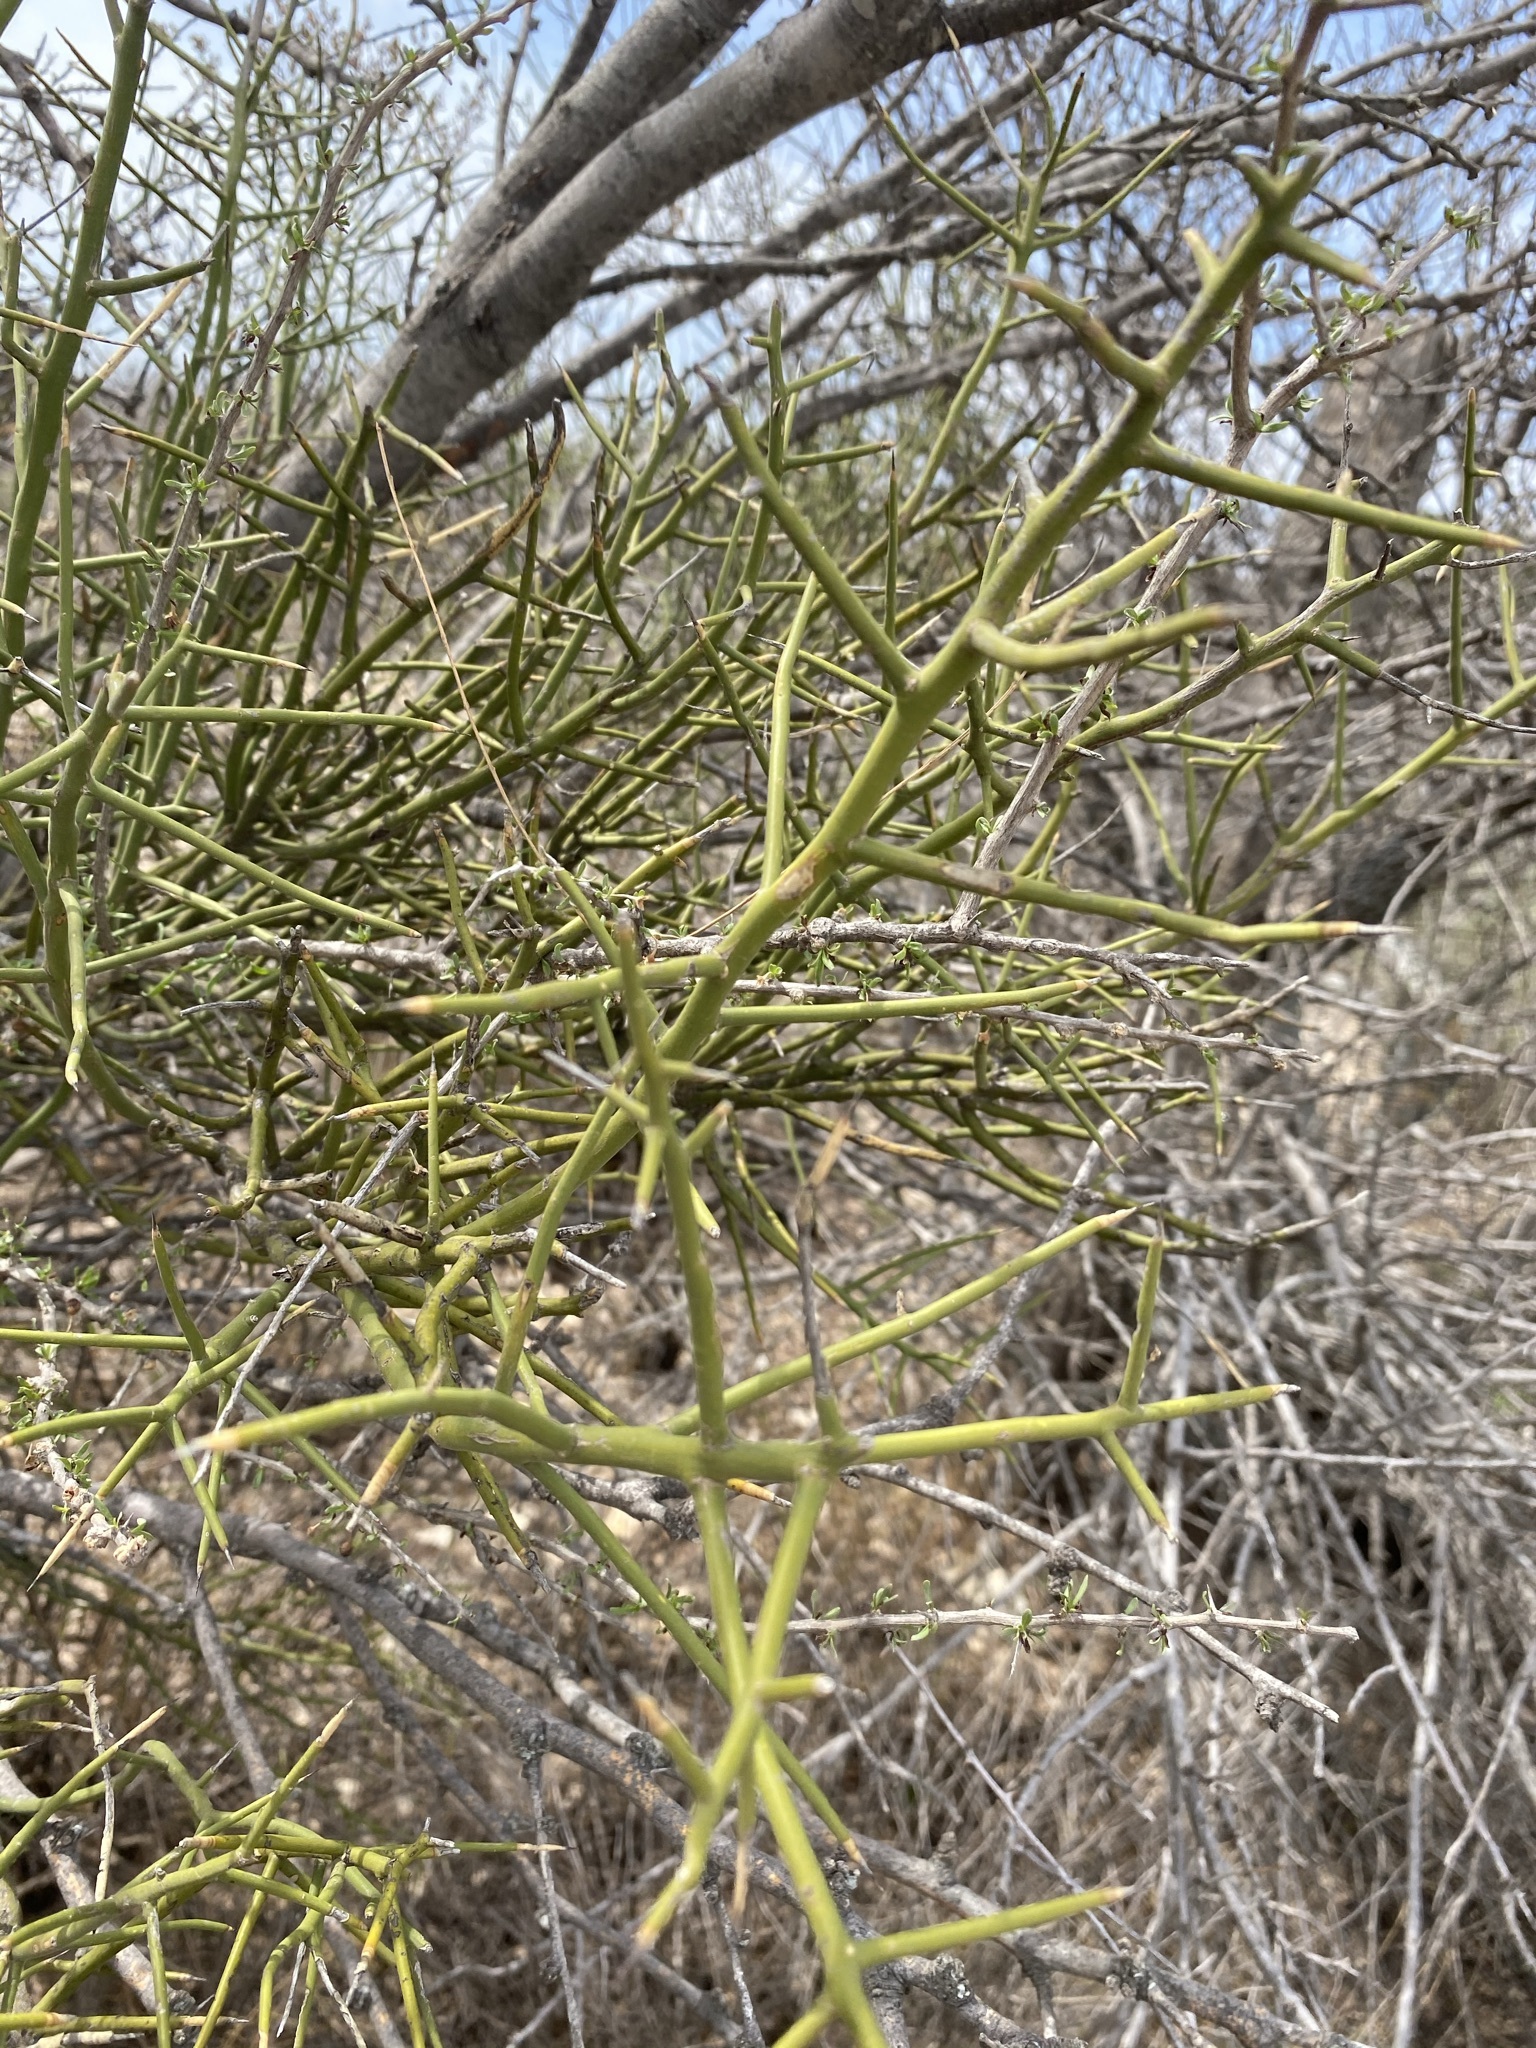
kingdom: Plantae
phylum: Tracheophyta
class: Magnoliopsida
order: Brassicales
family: Koeberliniaceae
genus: Koeberlinia
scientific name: Koeberlinia spinosa
